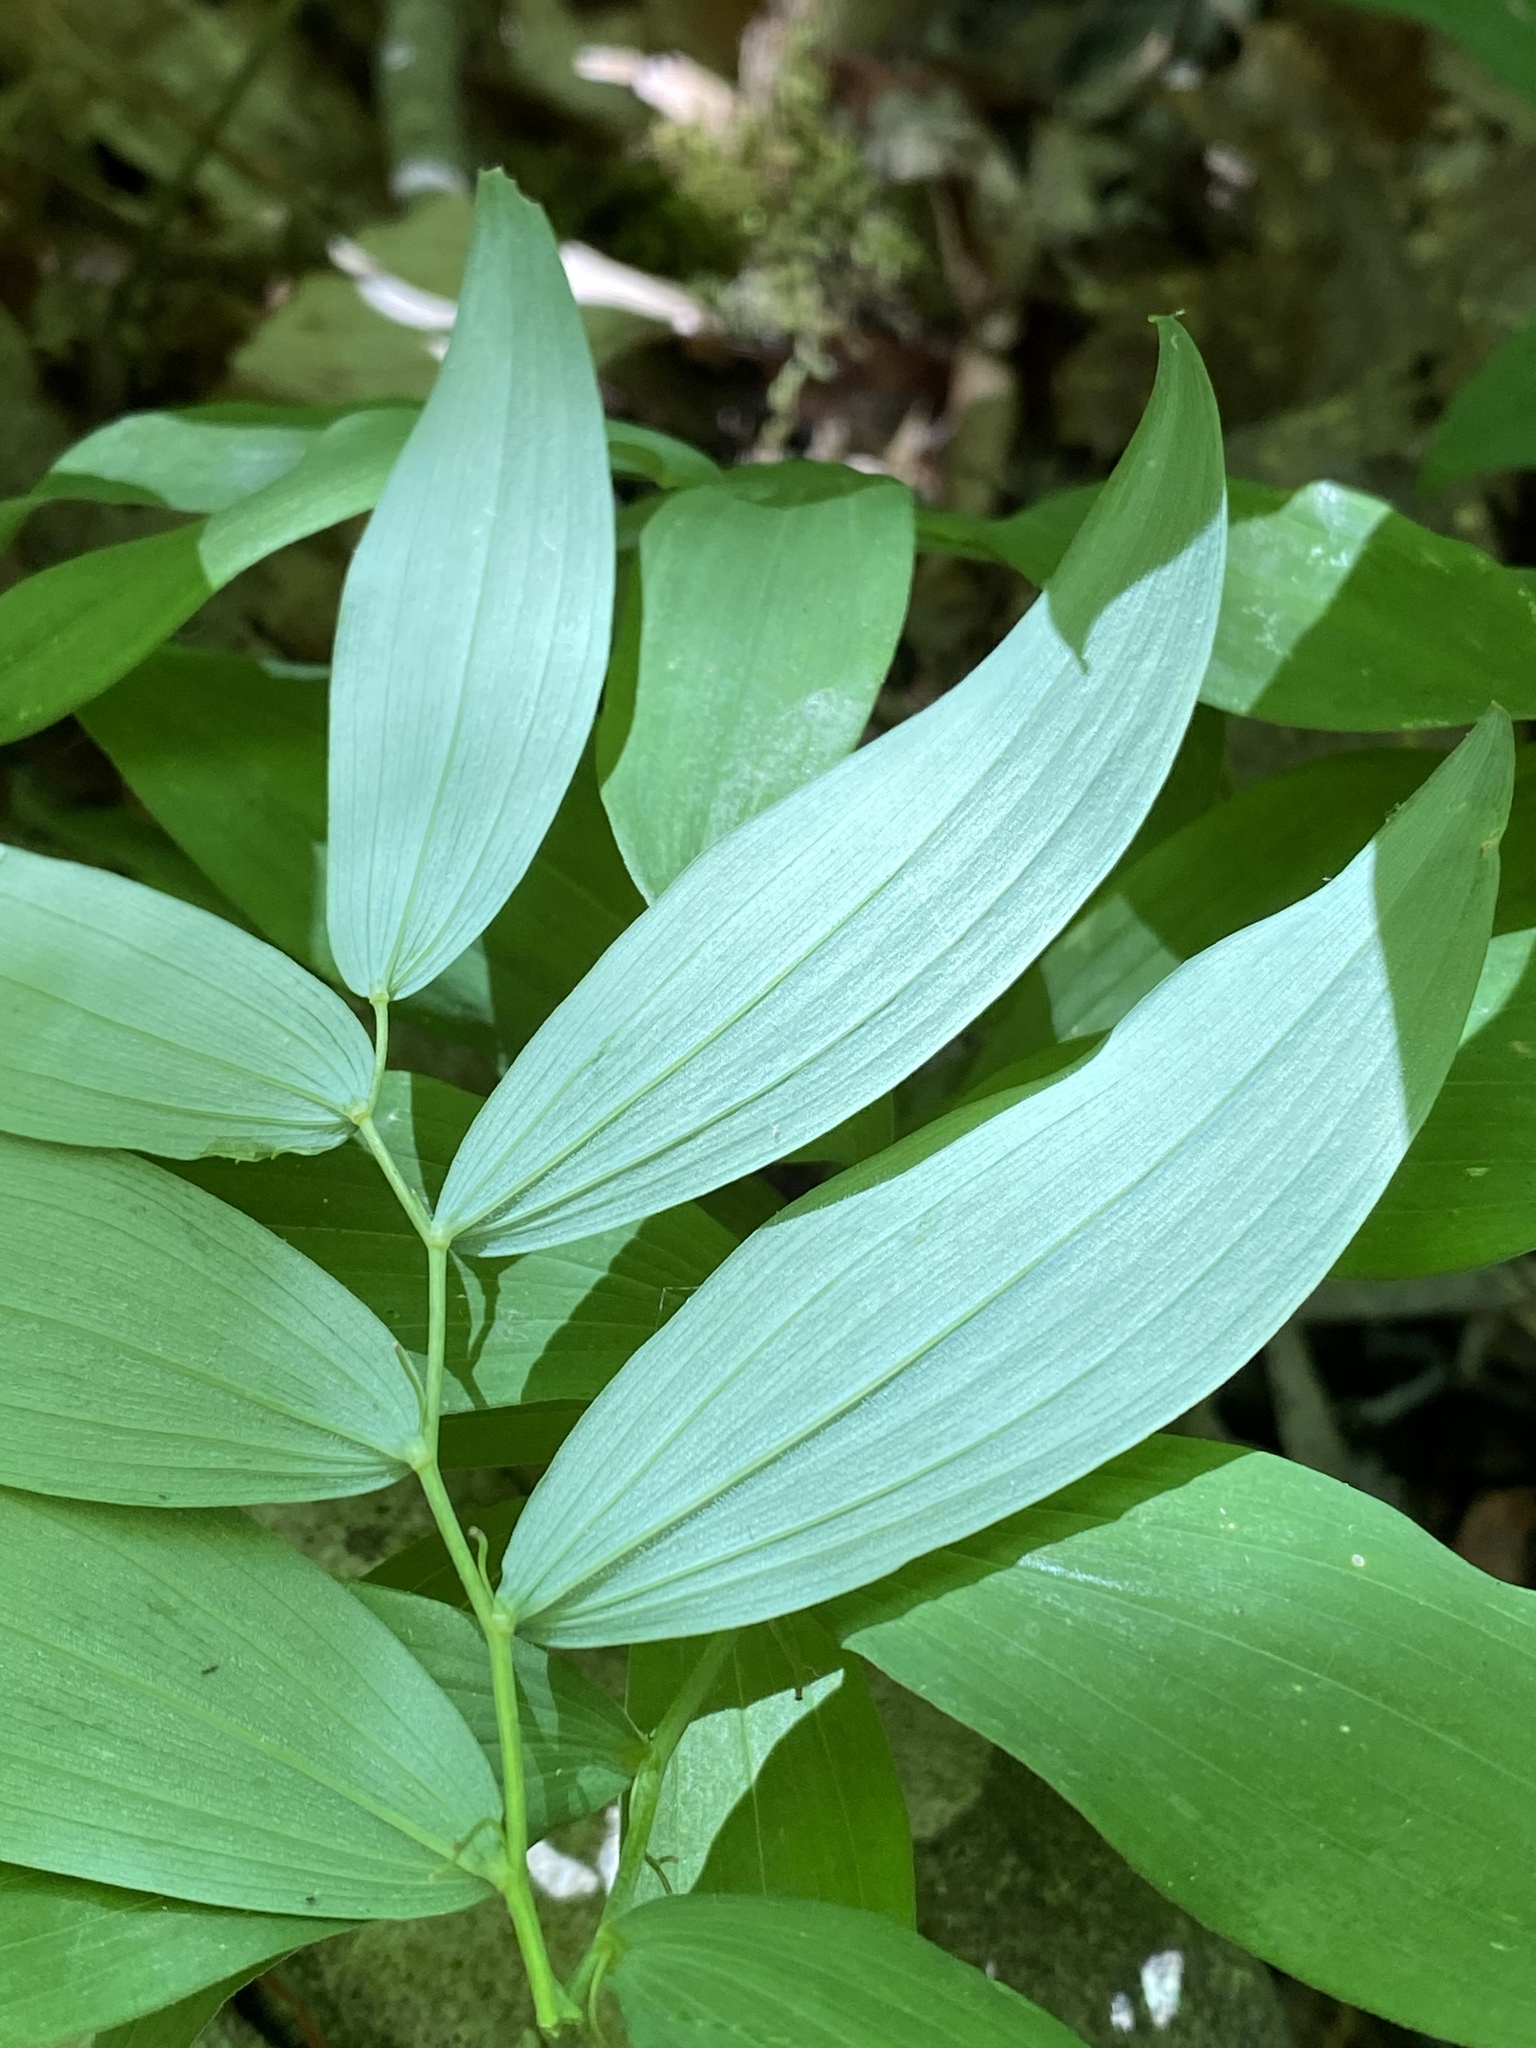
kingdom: Plantae
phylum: Tracheophyta
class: Liliopsida
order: Asparagales
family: Asparagaceae
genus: Polygonatum
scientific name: Polygonatum pubescens
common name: Downy solomon's seal
